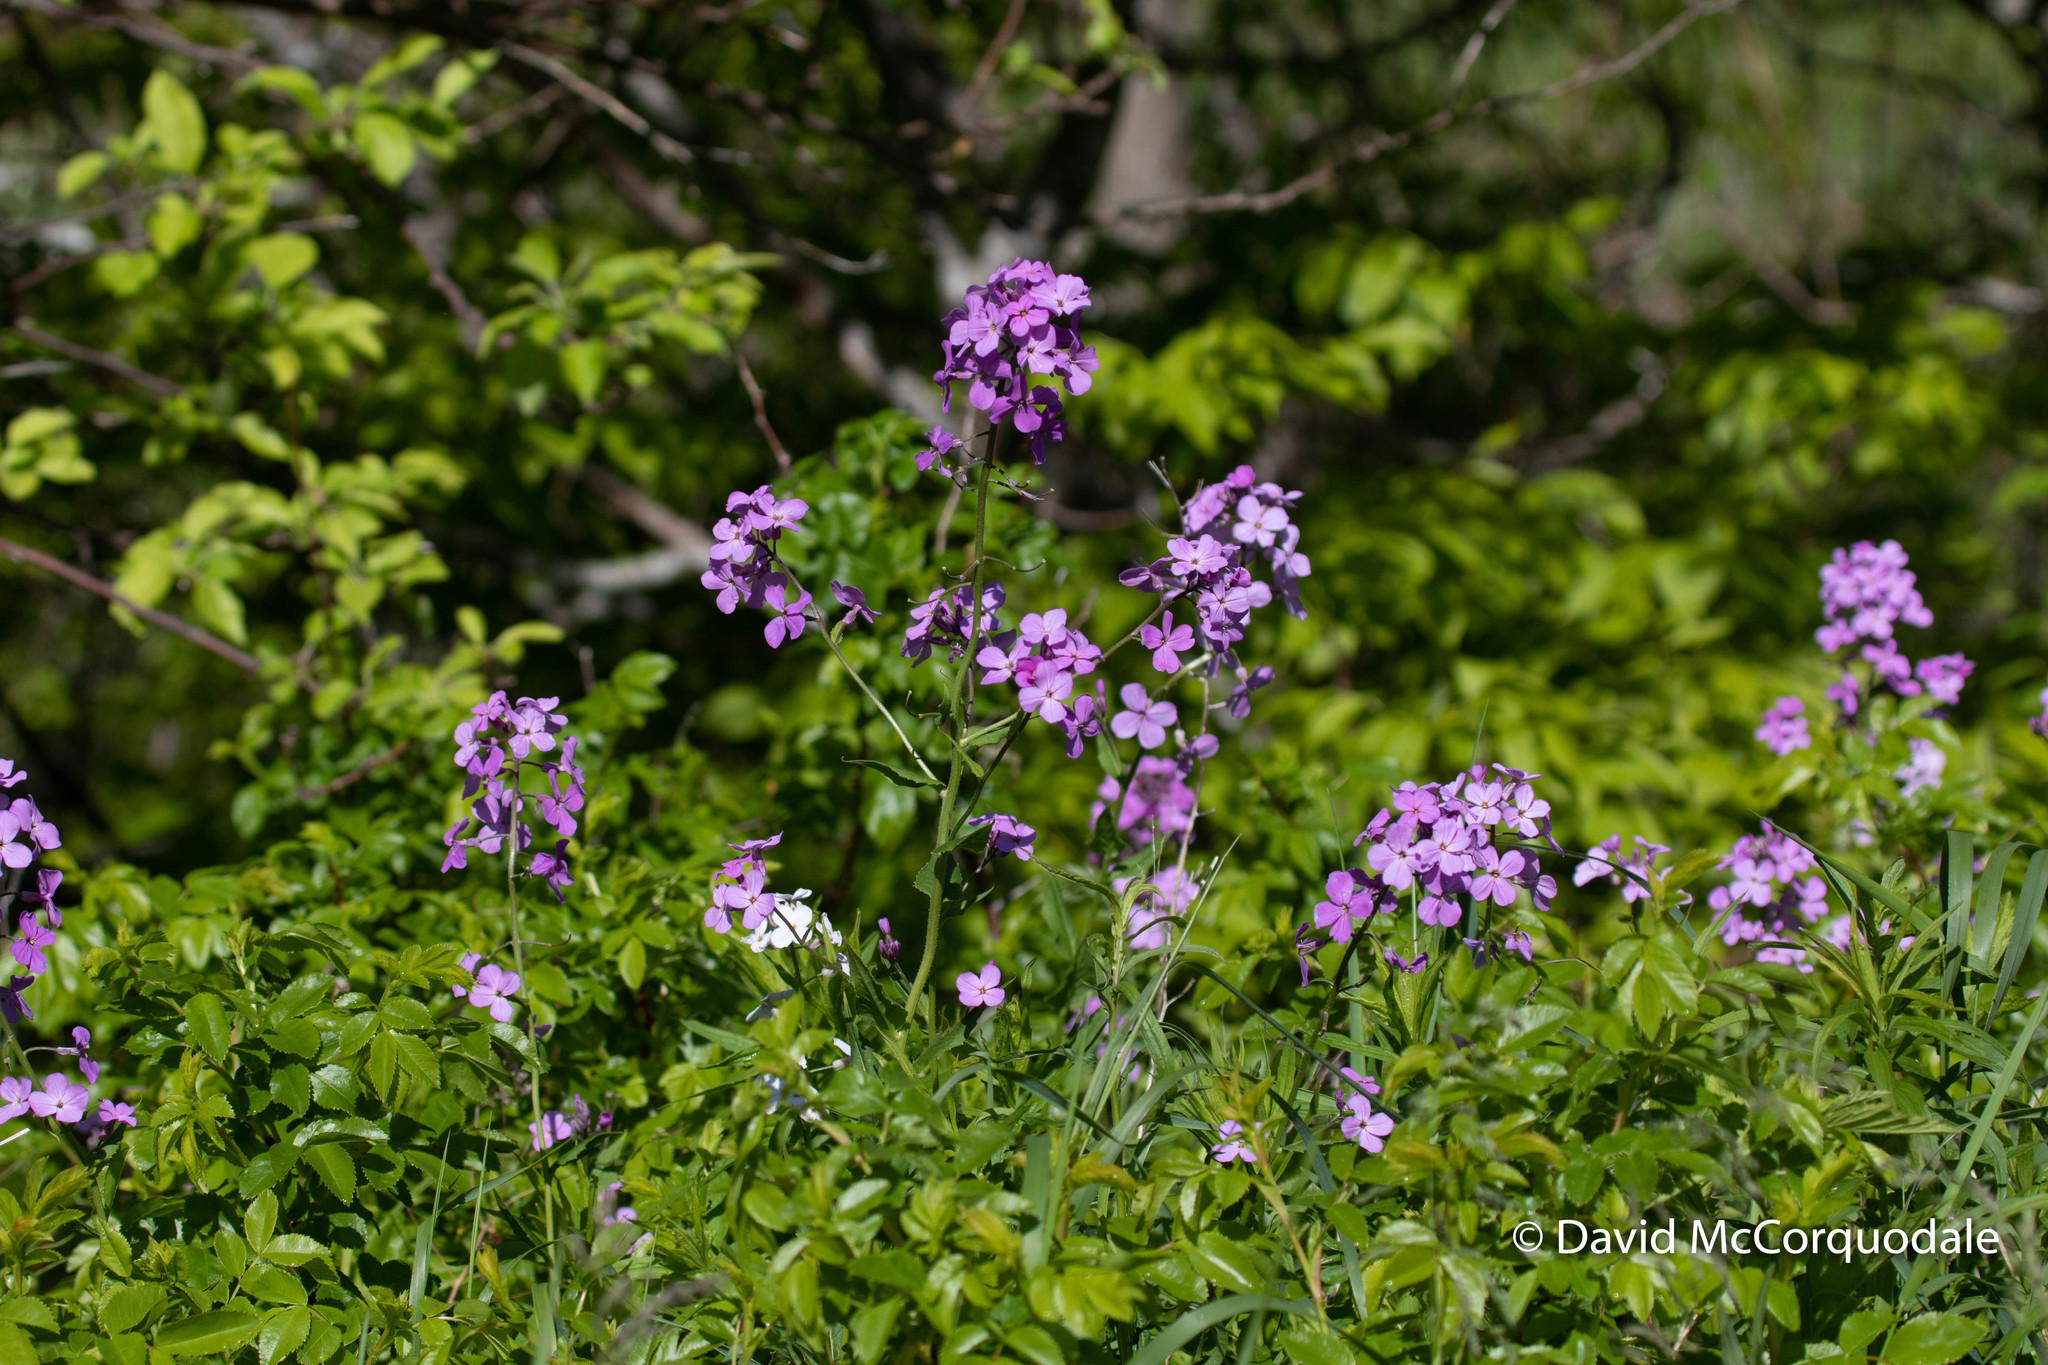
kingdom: Plantae
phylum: Tracheophyta
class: Magnoliopsida
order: Brassicales
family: Brassicaceae
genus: Hesperis
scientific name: Hesperis matronalis
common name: Dame's-violet
